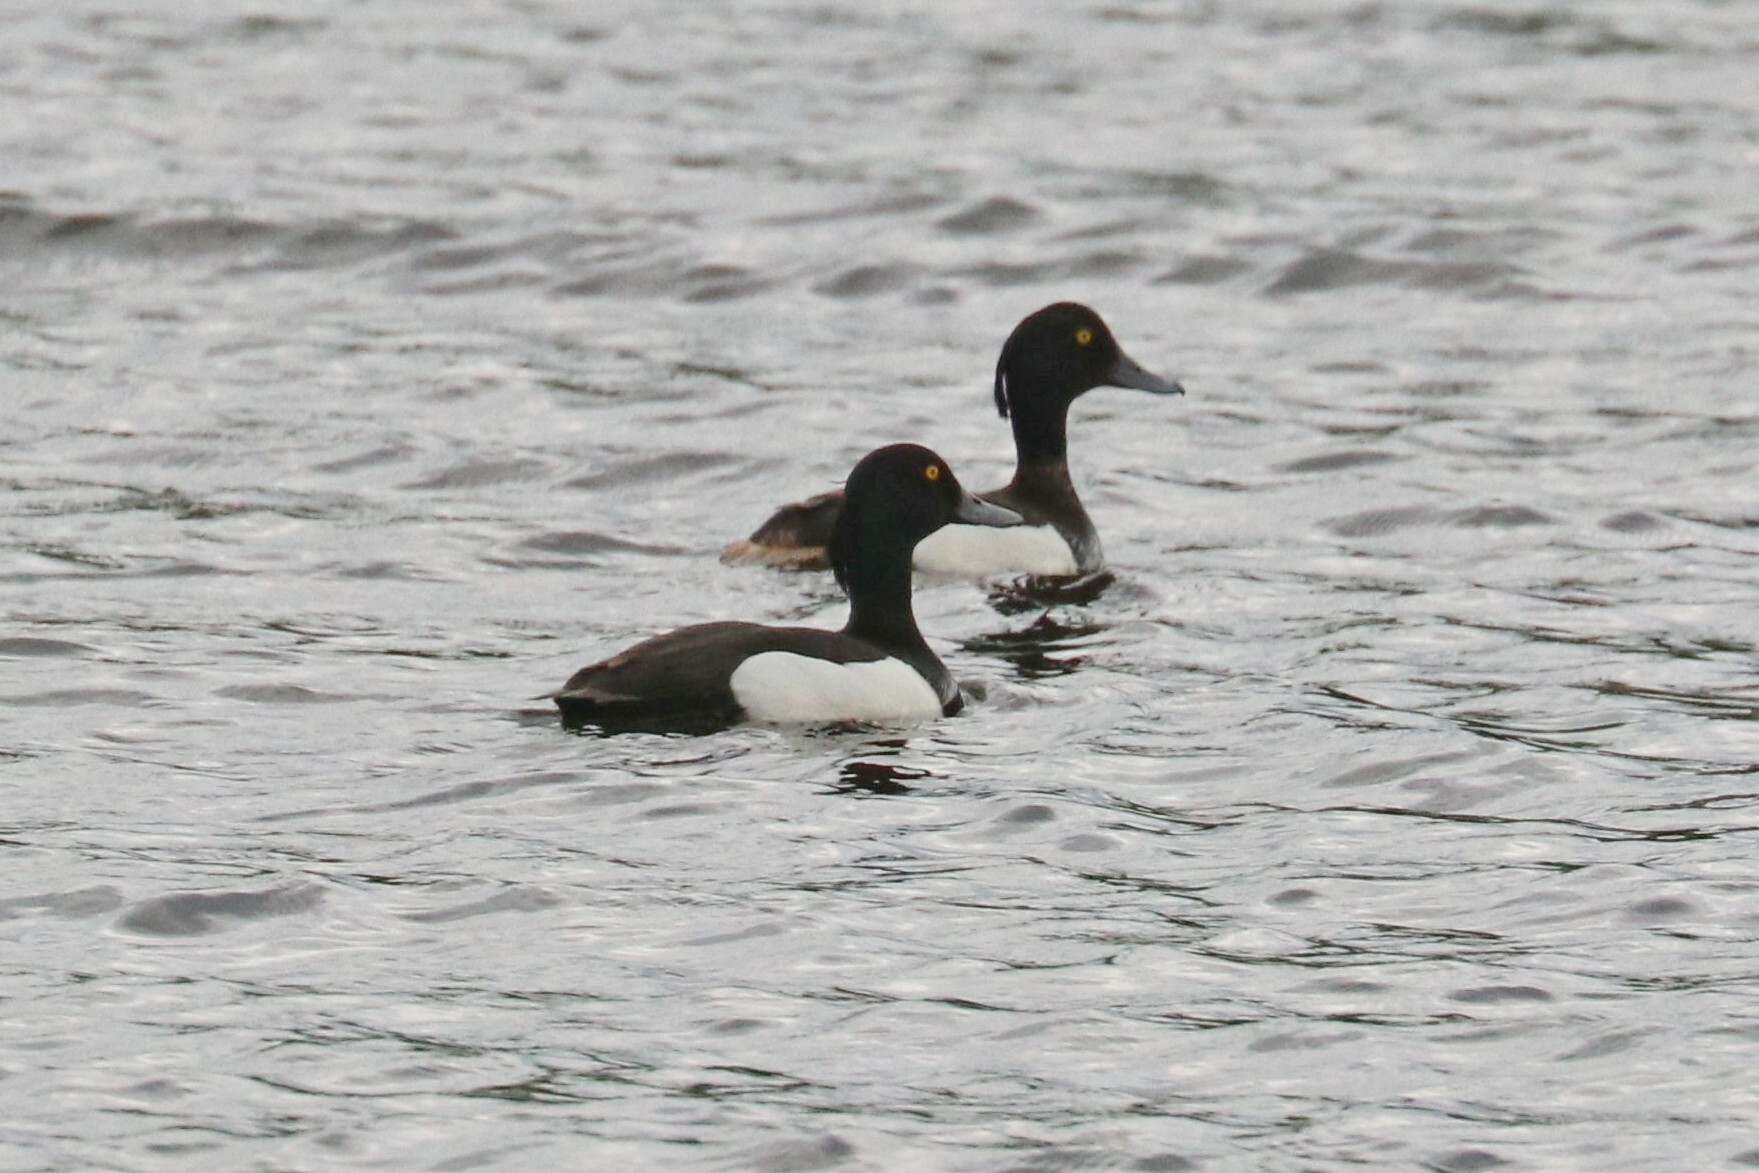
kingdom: Animalia
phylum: Chordata
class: Aves
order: Anseriformes
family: Anatidae
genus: Aythya
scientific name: Aythya fuligula
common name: Tufted duck
